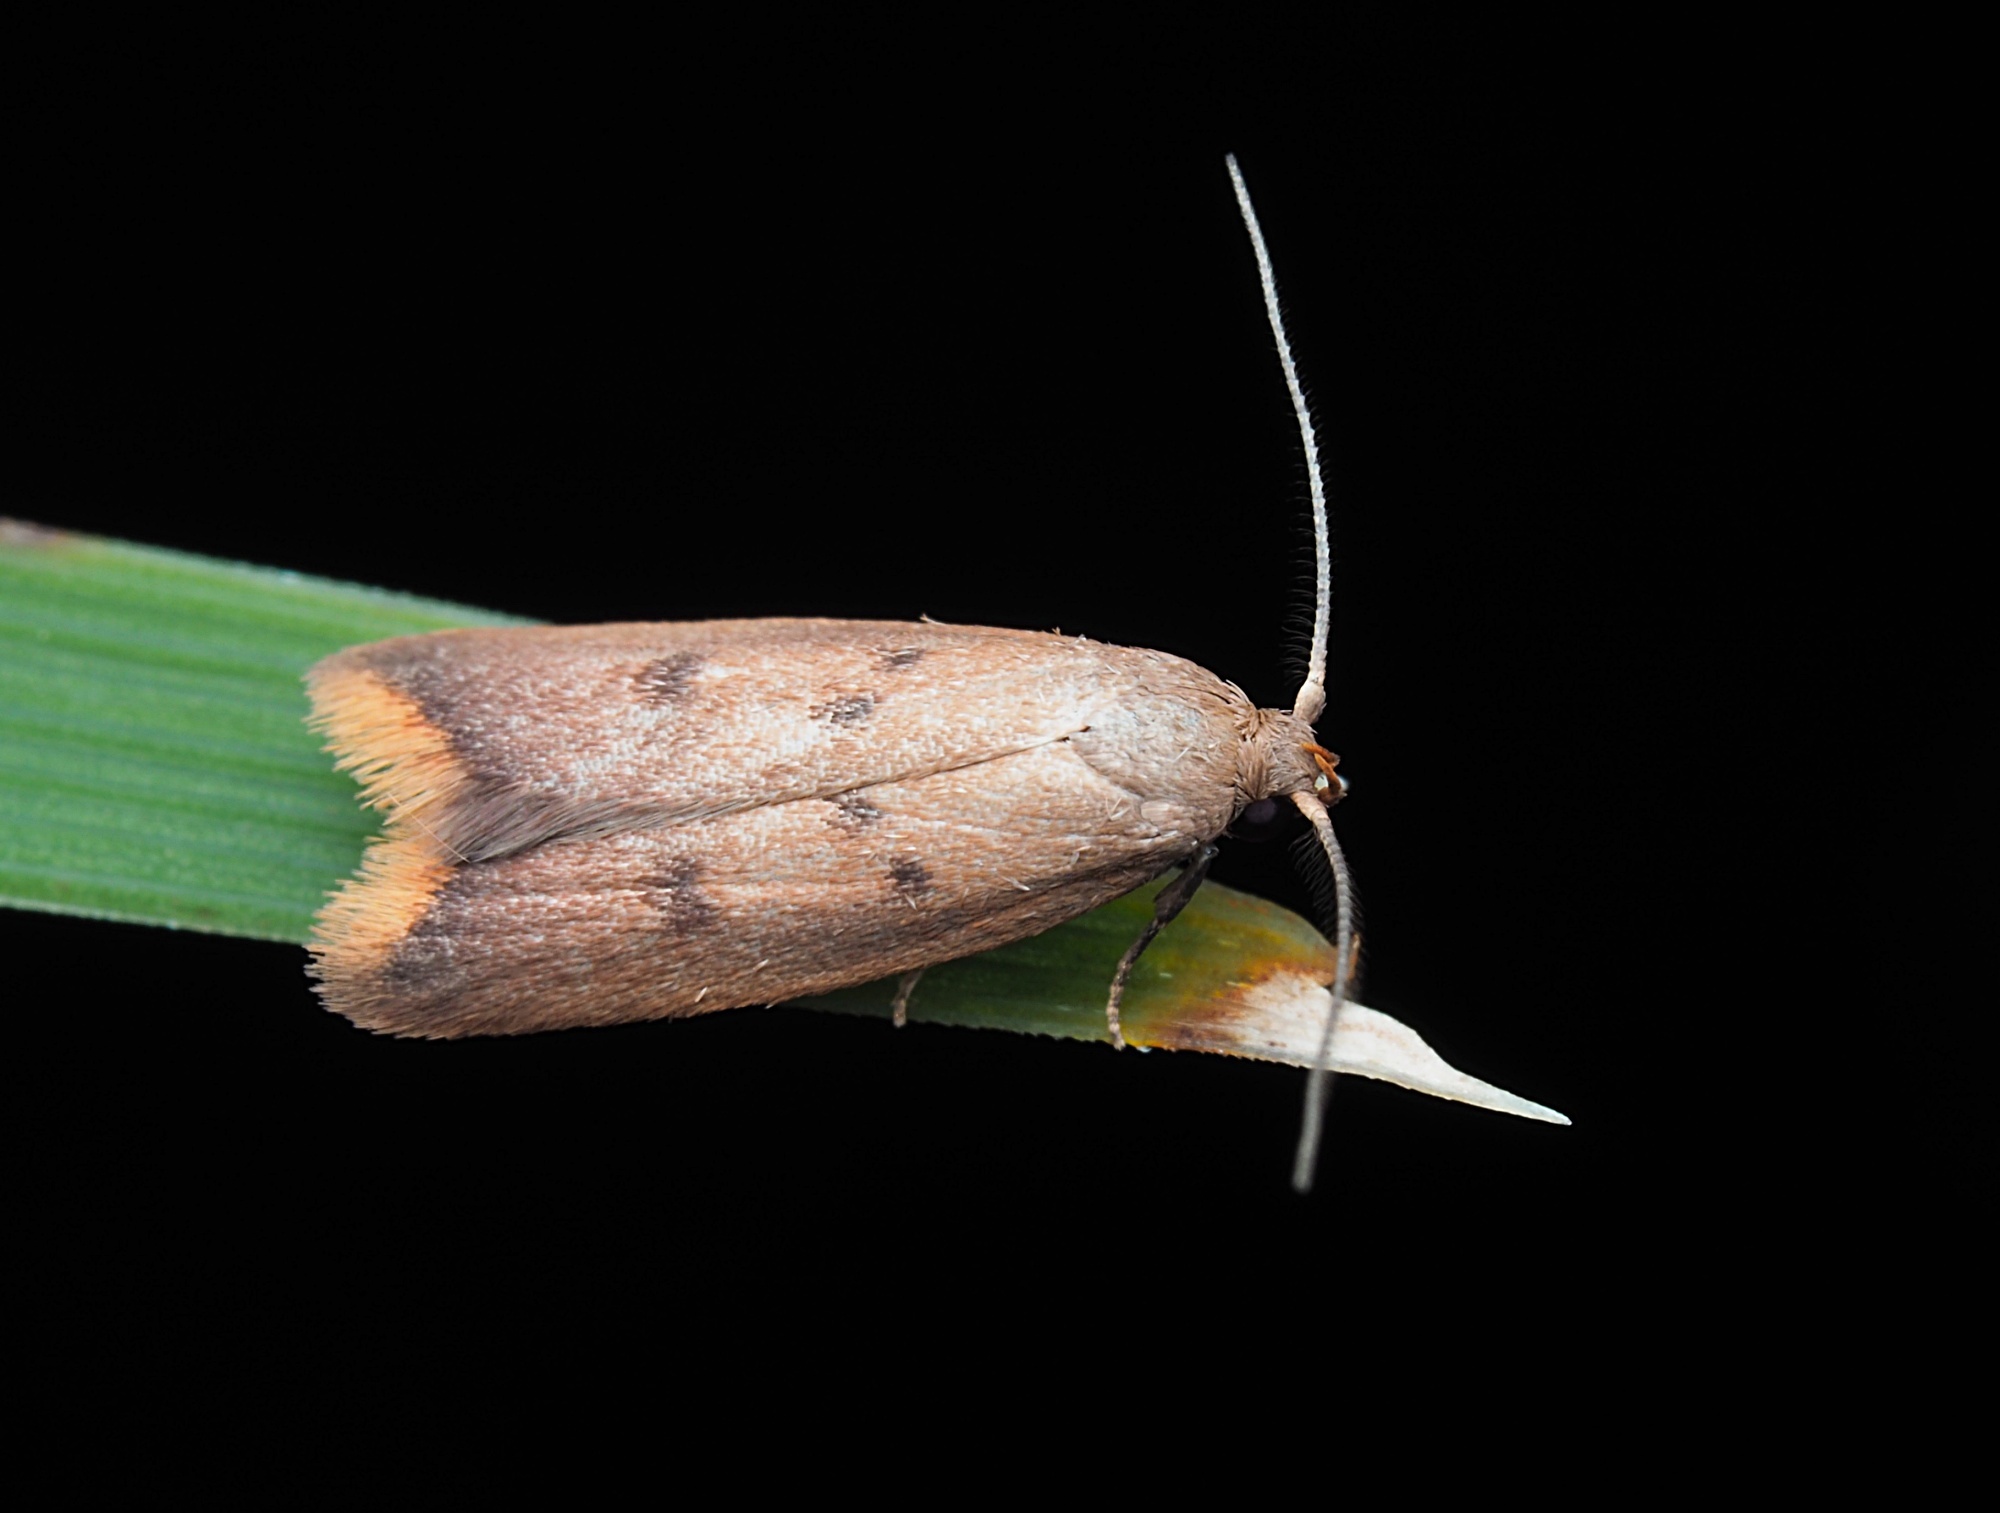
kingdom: Animalia
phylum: Arthropoda
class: Insecta
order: Lepidoptera
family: Oecophoridae
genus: Tachystola
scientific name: Tachystola acroxantha
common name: Ruddy streak
